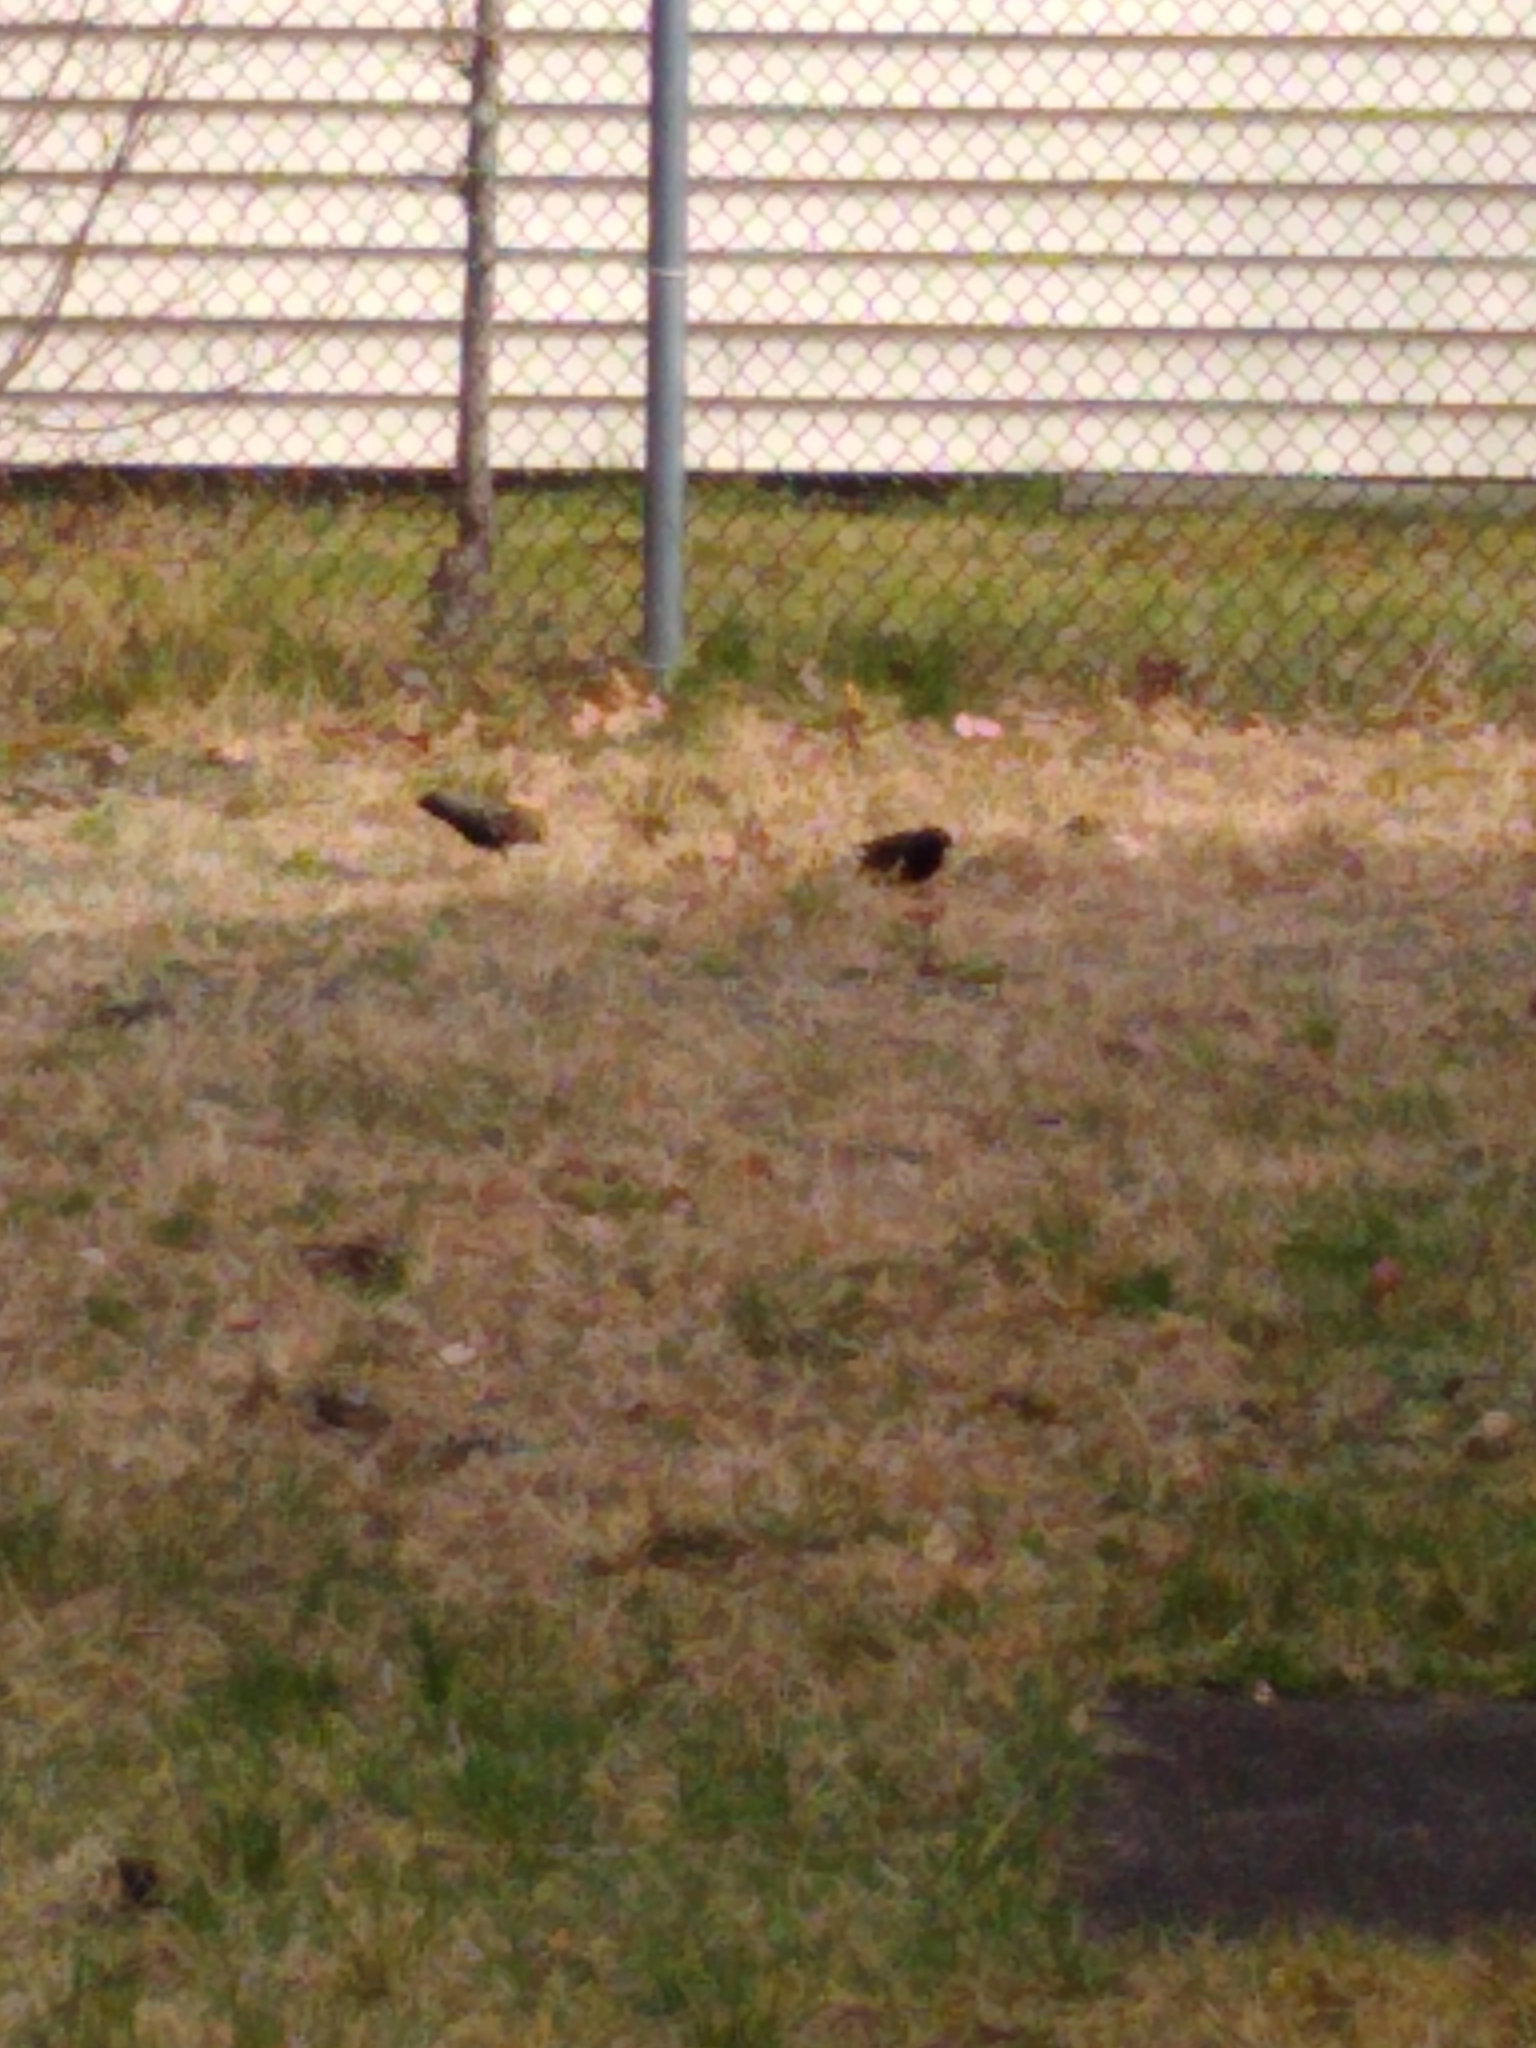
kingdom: Animalia
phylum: Chordata
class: Aves
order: Passeriformes
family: Sturnidae
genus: Sturnus
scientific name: Sturnus vulgaris
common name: Common starling
